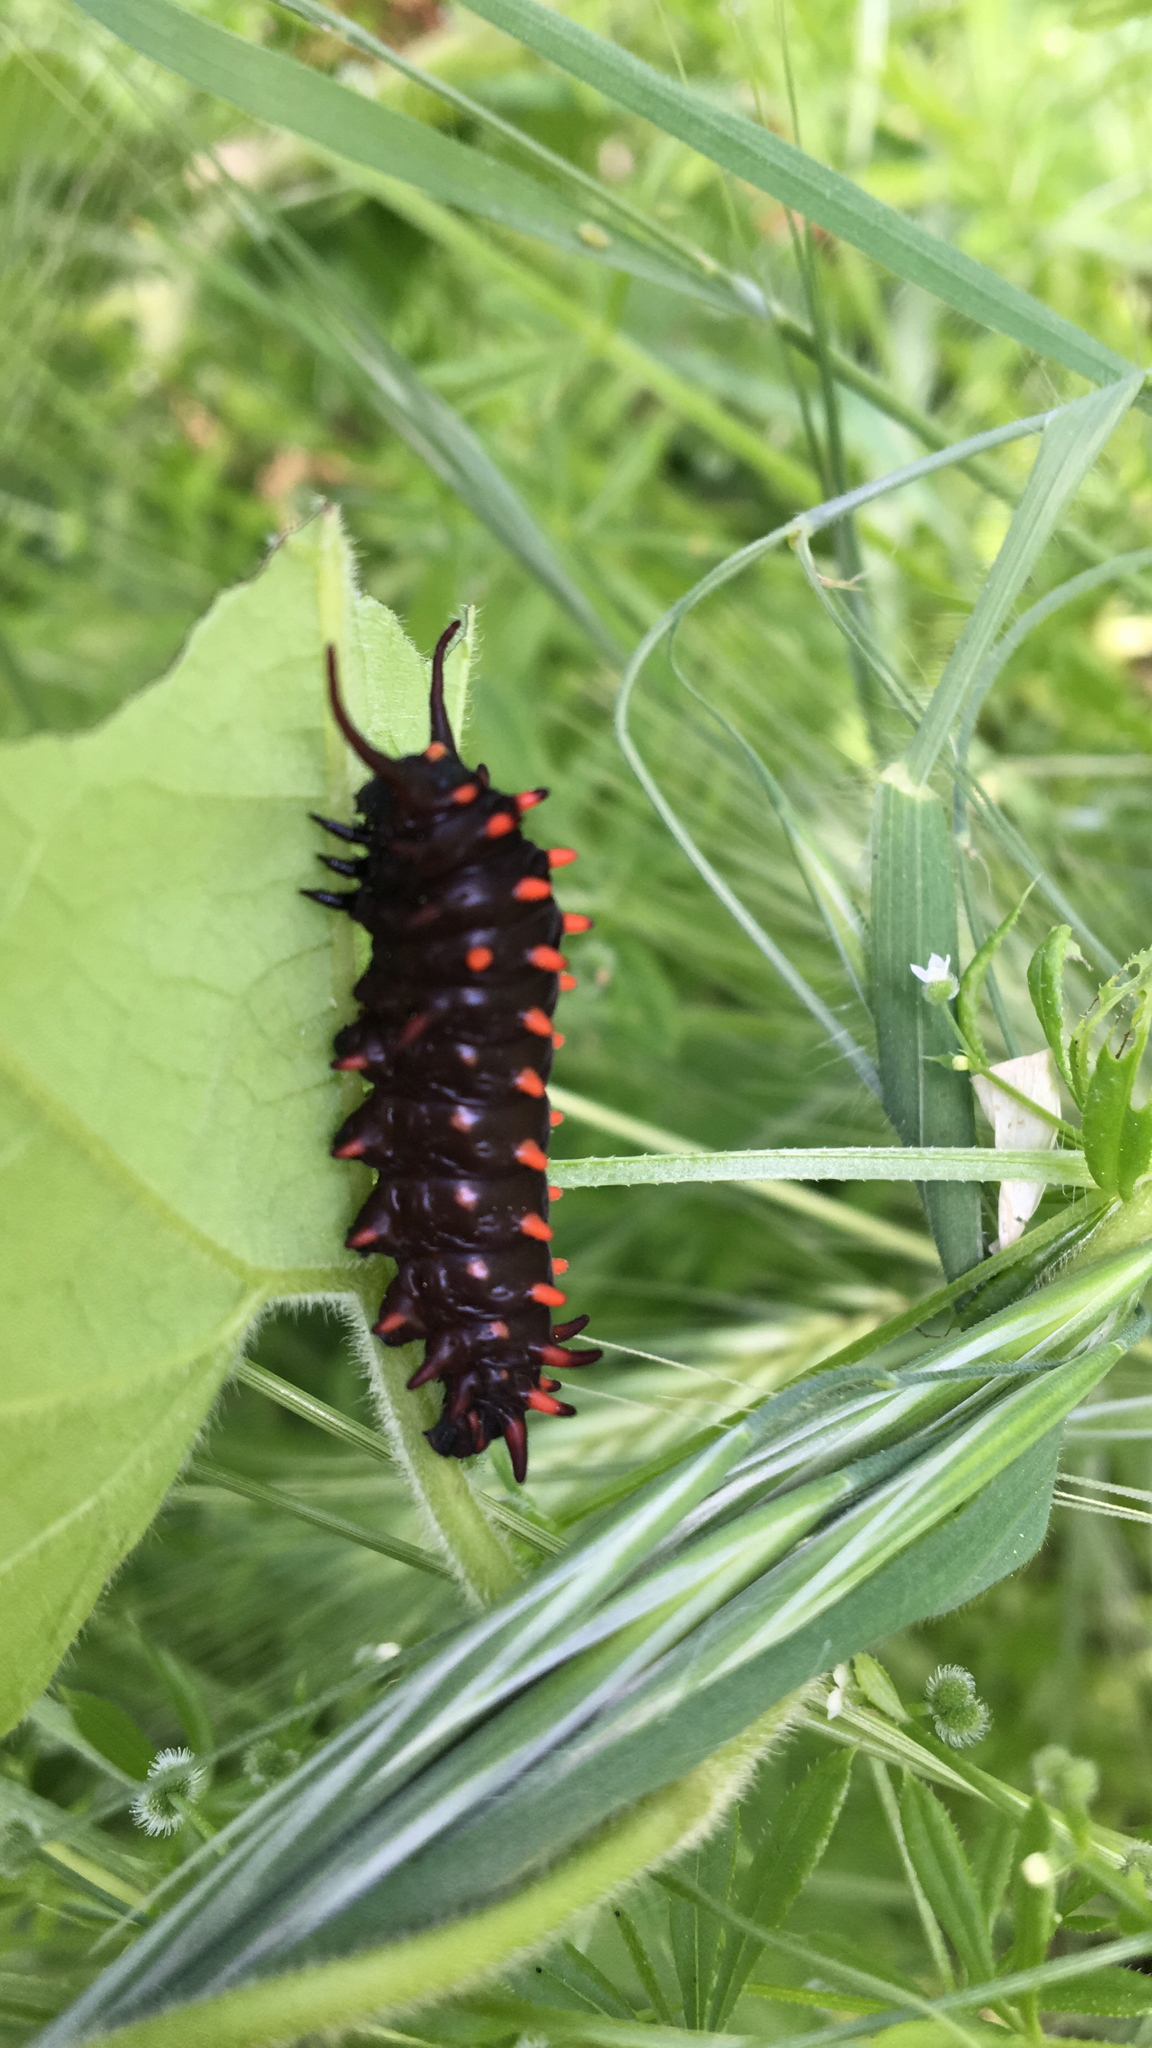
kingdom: Animalia
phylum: Arthropoda
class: Insecta
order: Lepidoptera
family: Papilionidae
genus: Battus
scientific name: Battus philenor
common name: Pipevine swallowtail
